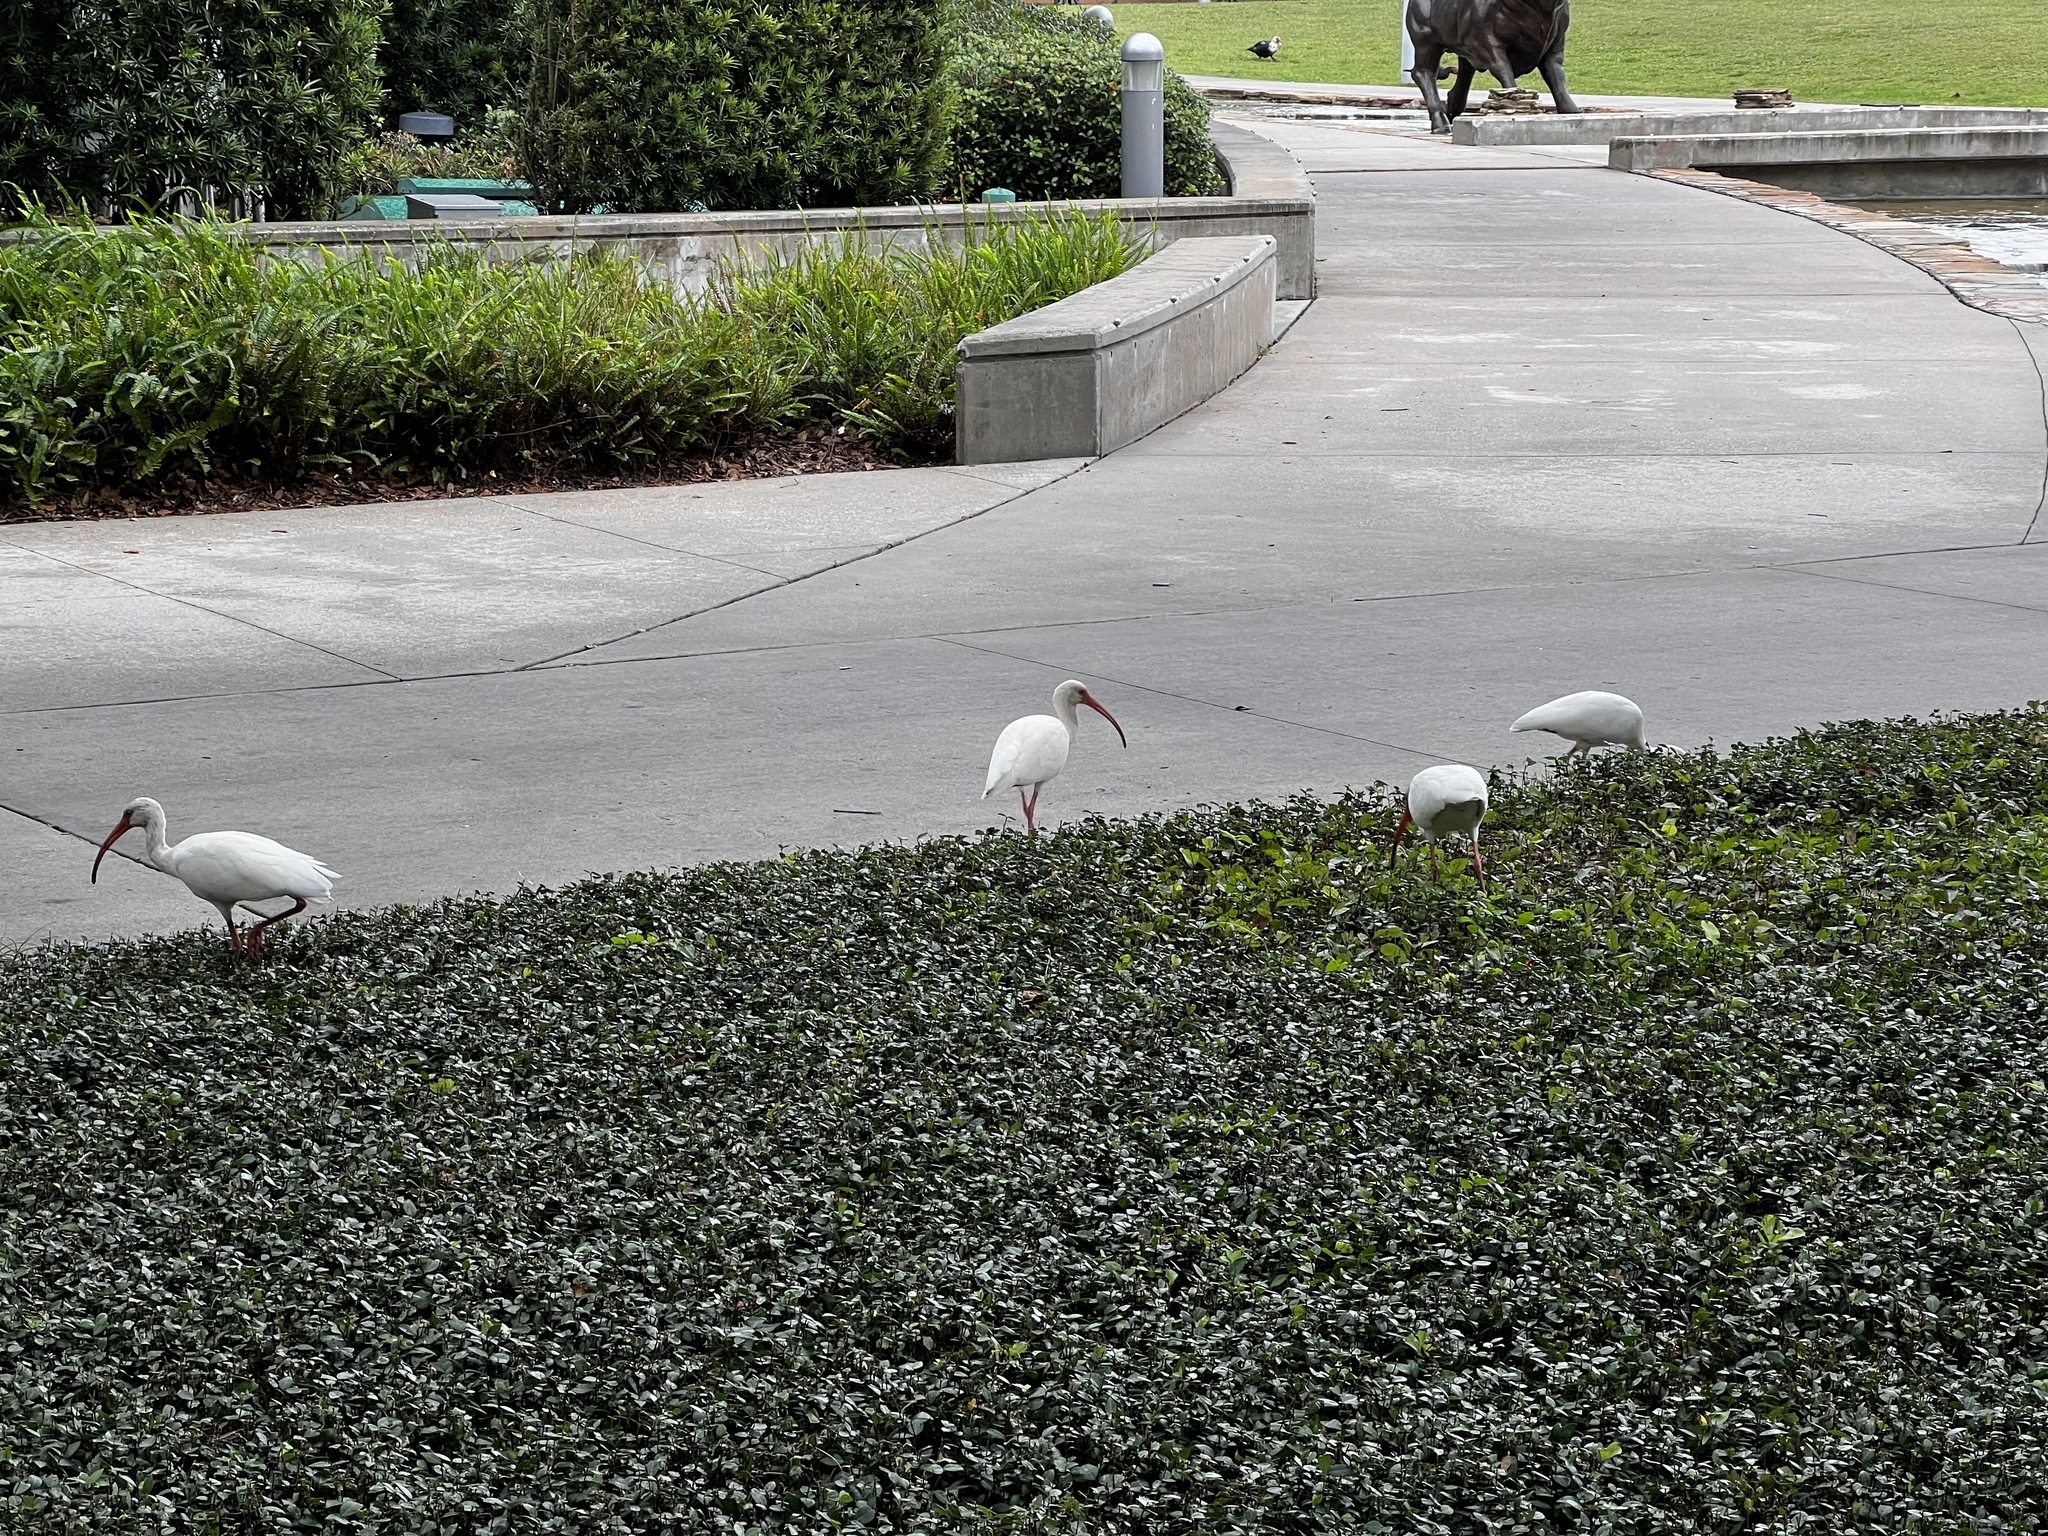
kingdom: Animalia
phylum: Chordata
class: Aves
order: Pelecaniformes
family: Threskiornithidae
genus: Eudocimus
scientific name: Eudocimus albus
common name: White ibis
